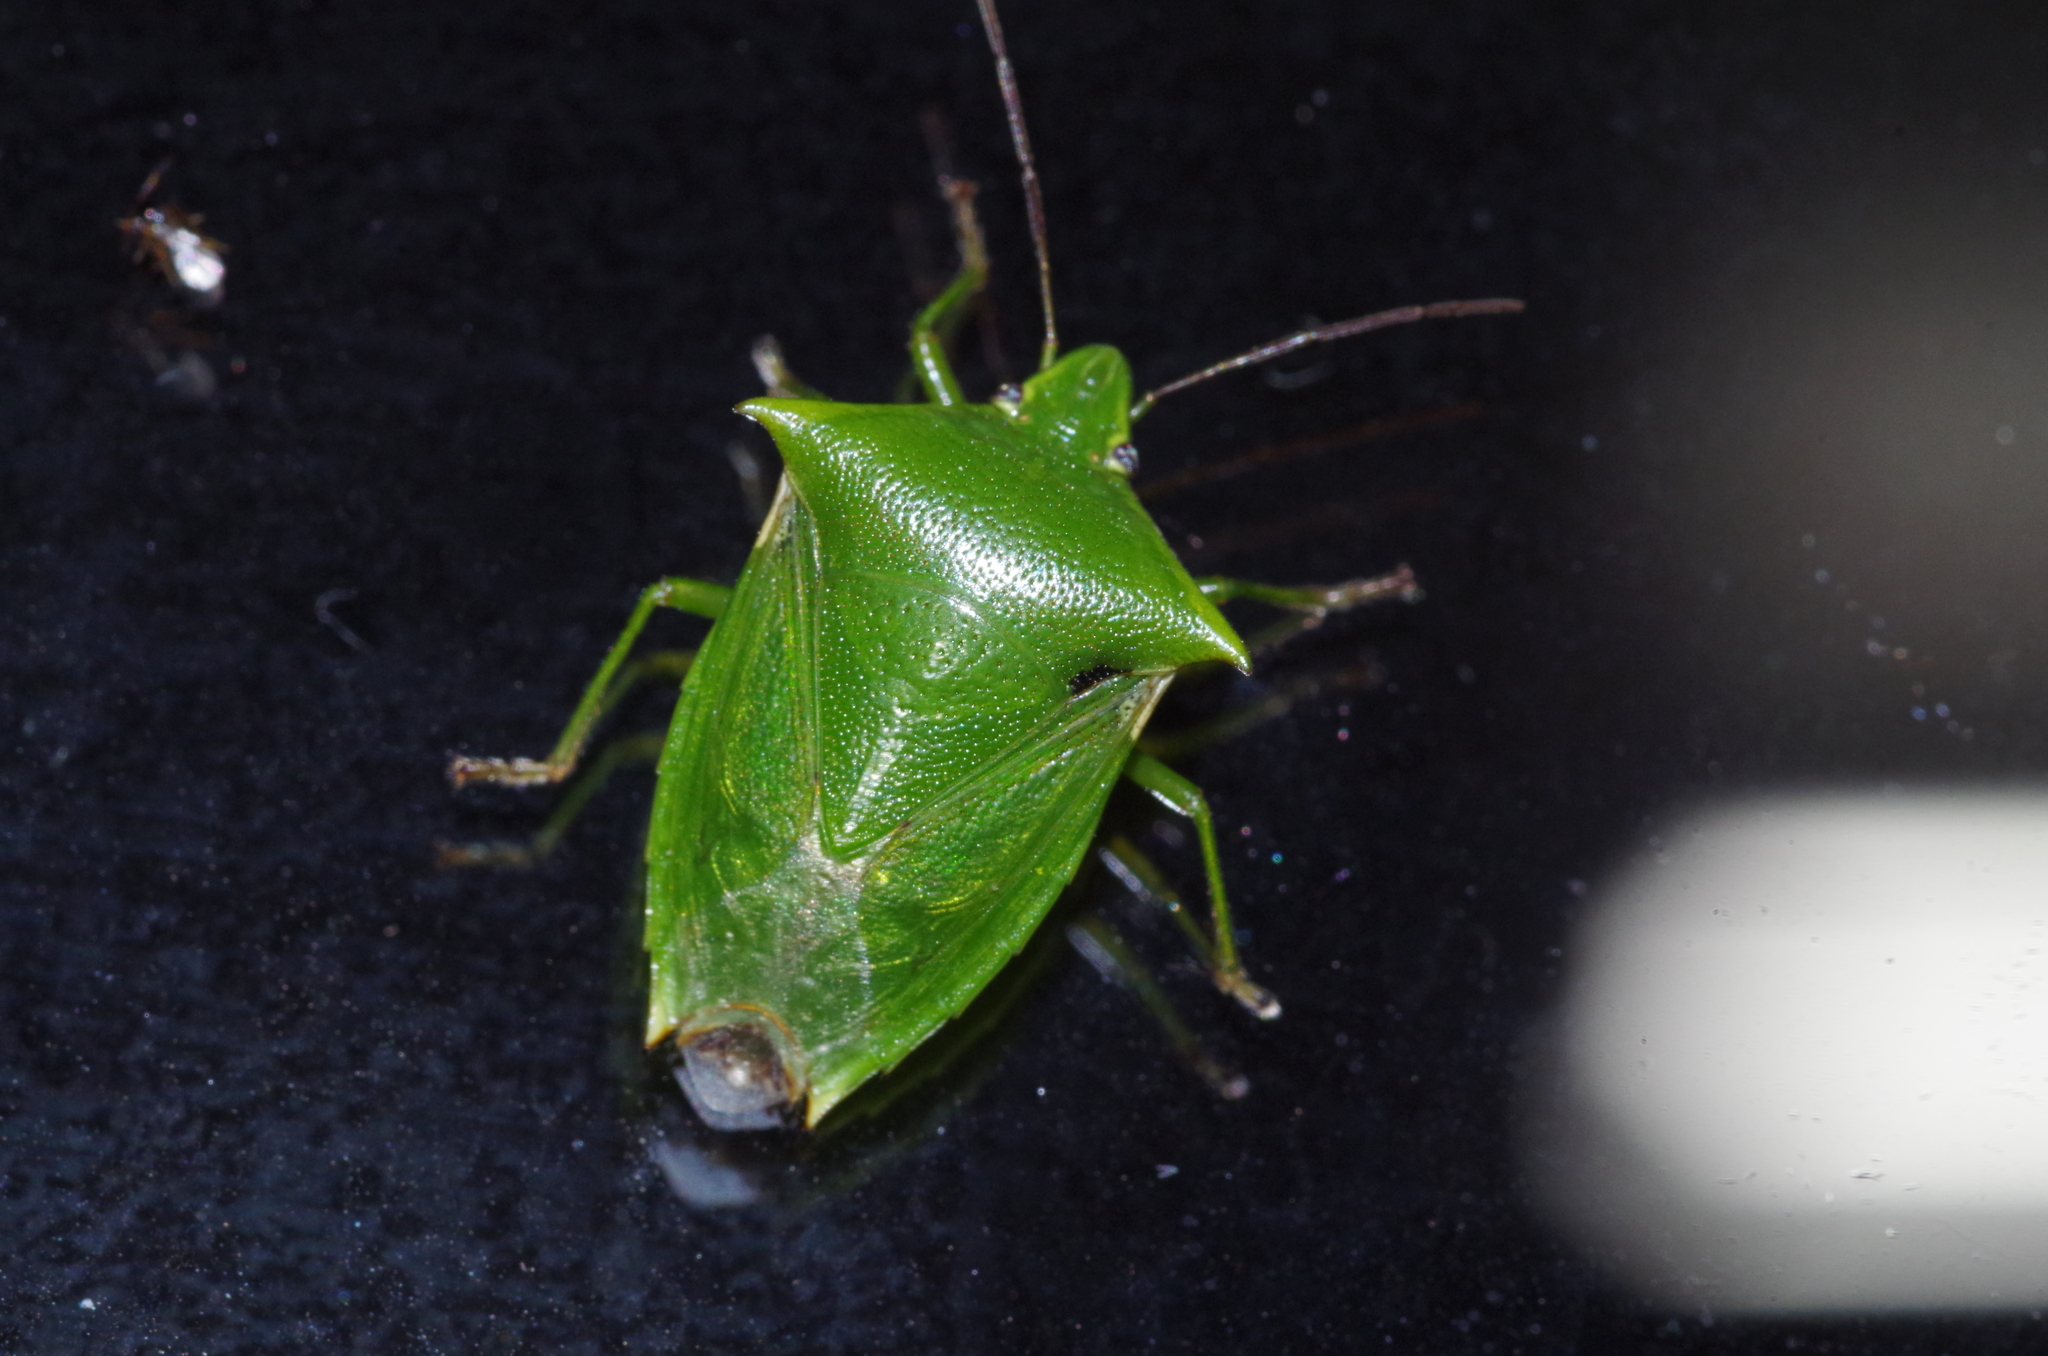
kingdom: Animalia
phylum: Arthropoda
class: Insecta
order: Hemiptera
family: Pentatomidae
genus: Vitellus
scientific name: Vitellus
